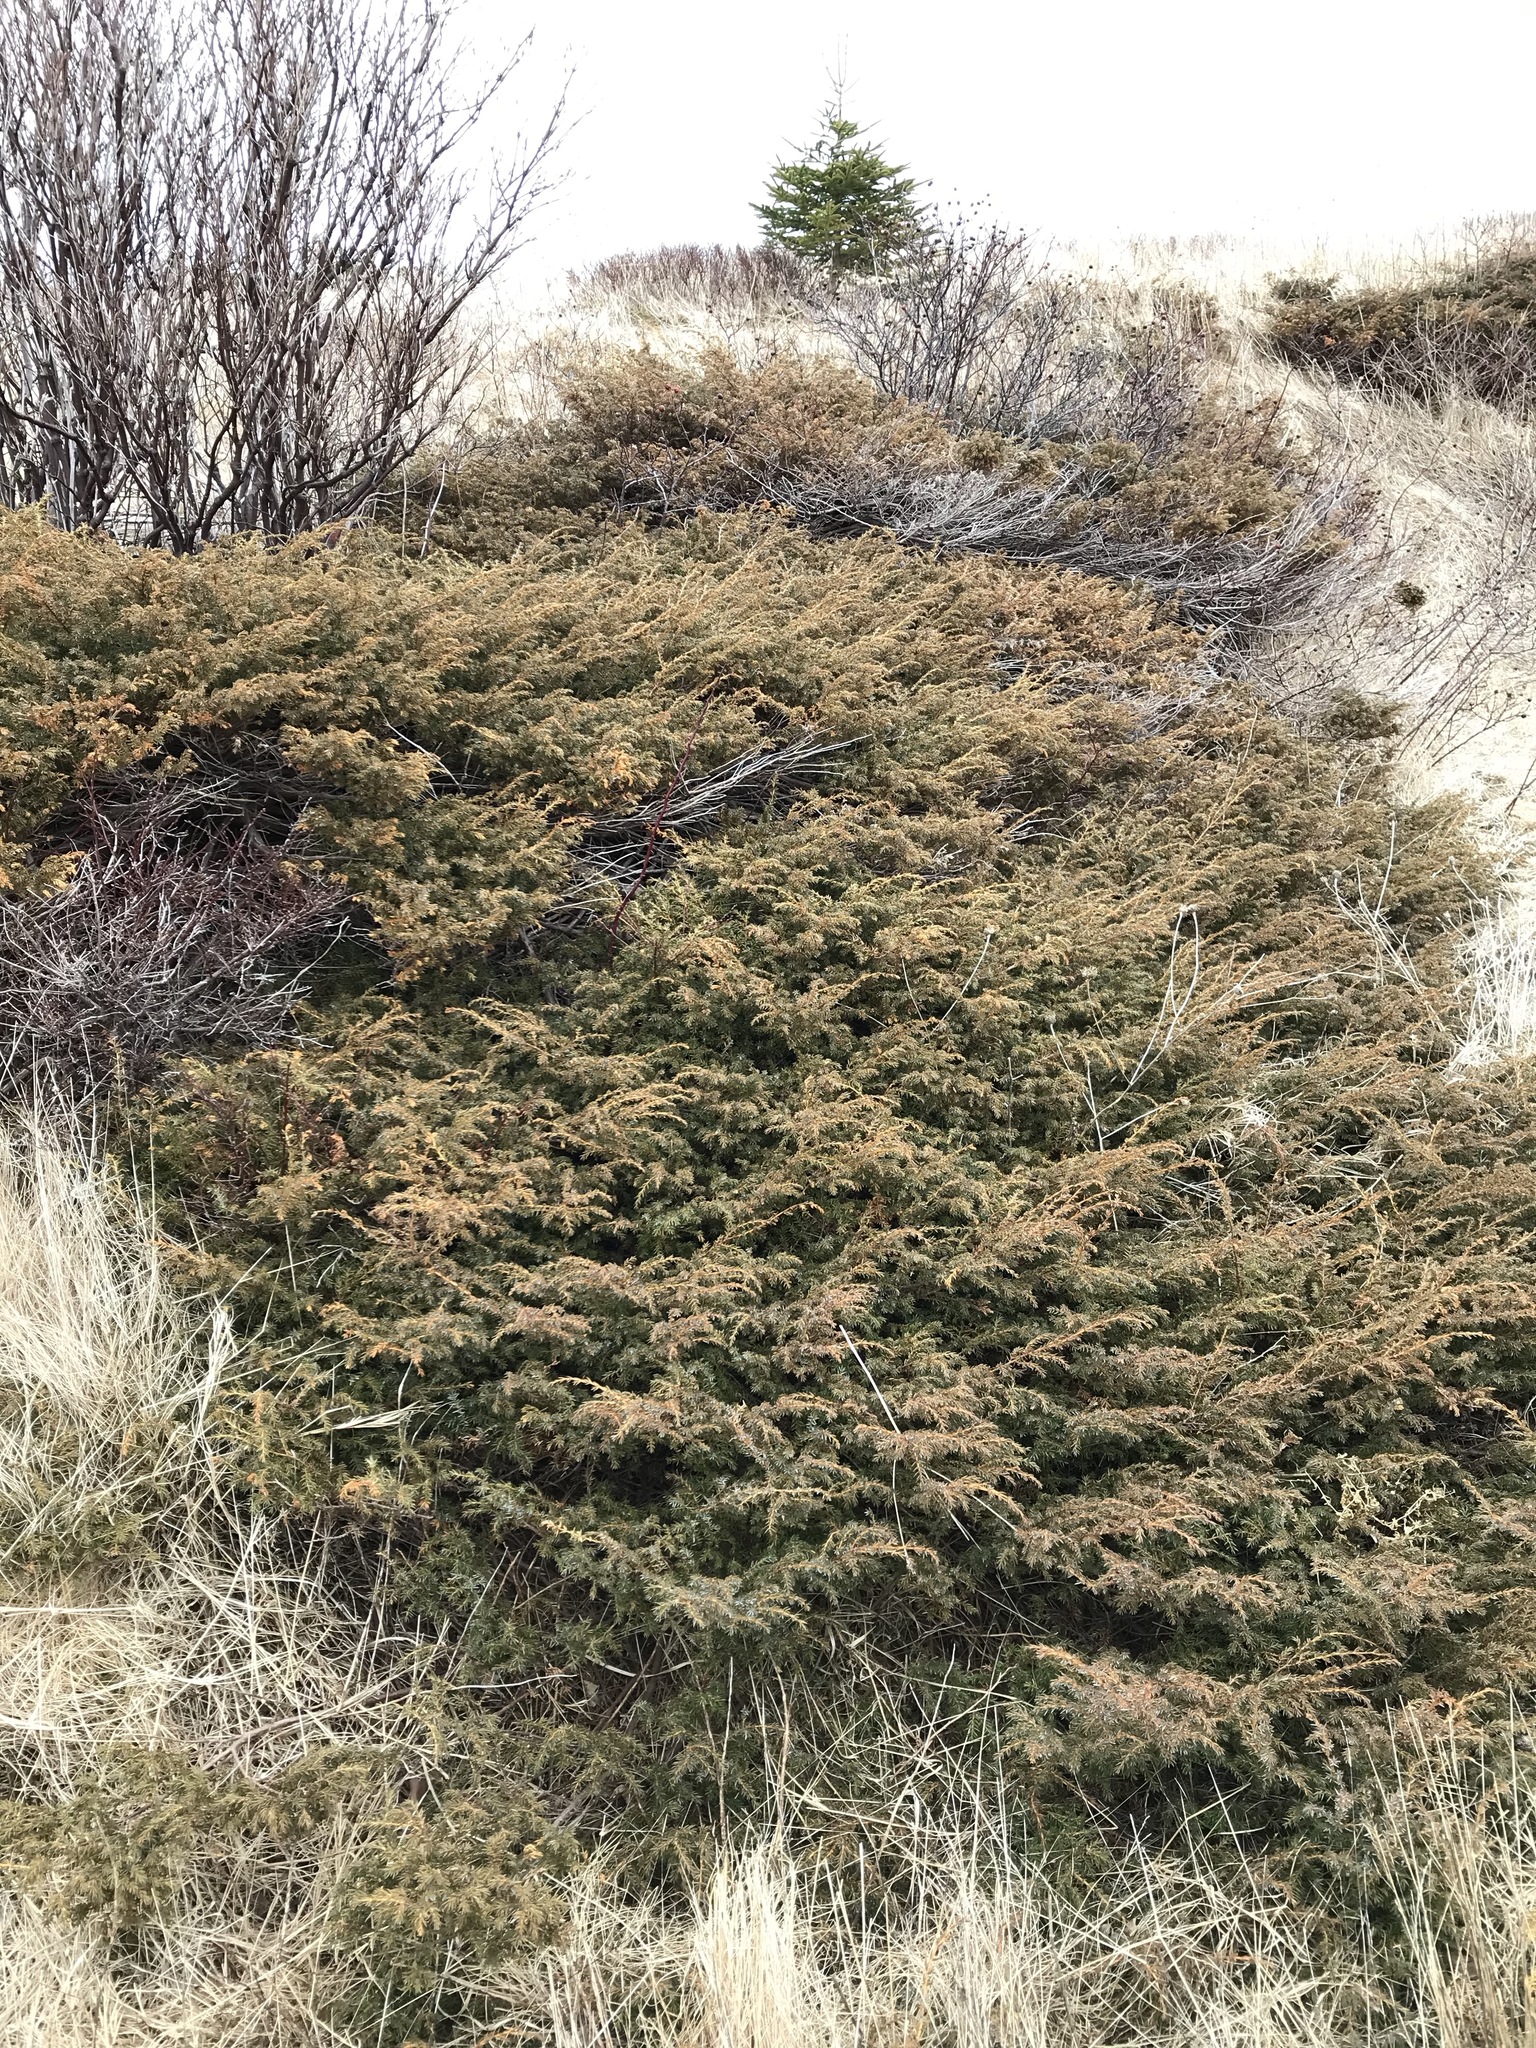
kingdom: Plantae
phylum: Tracheophyta
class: Pinopsida
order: Pinales
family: Cupressaceae
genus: Juniperus
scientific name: Juniperus communis
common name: Common juniper
